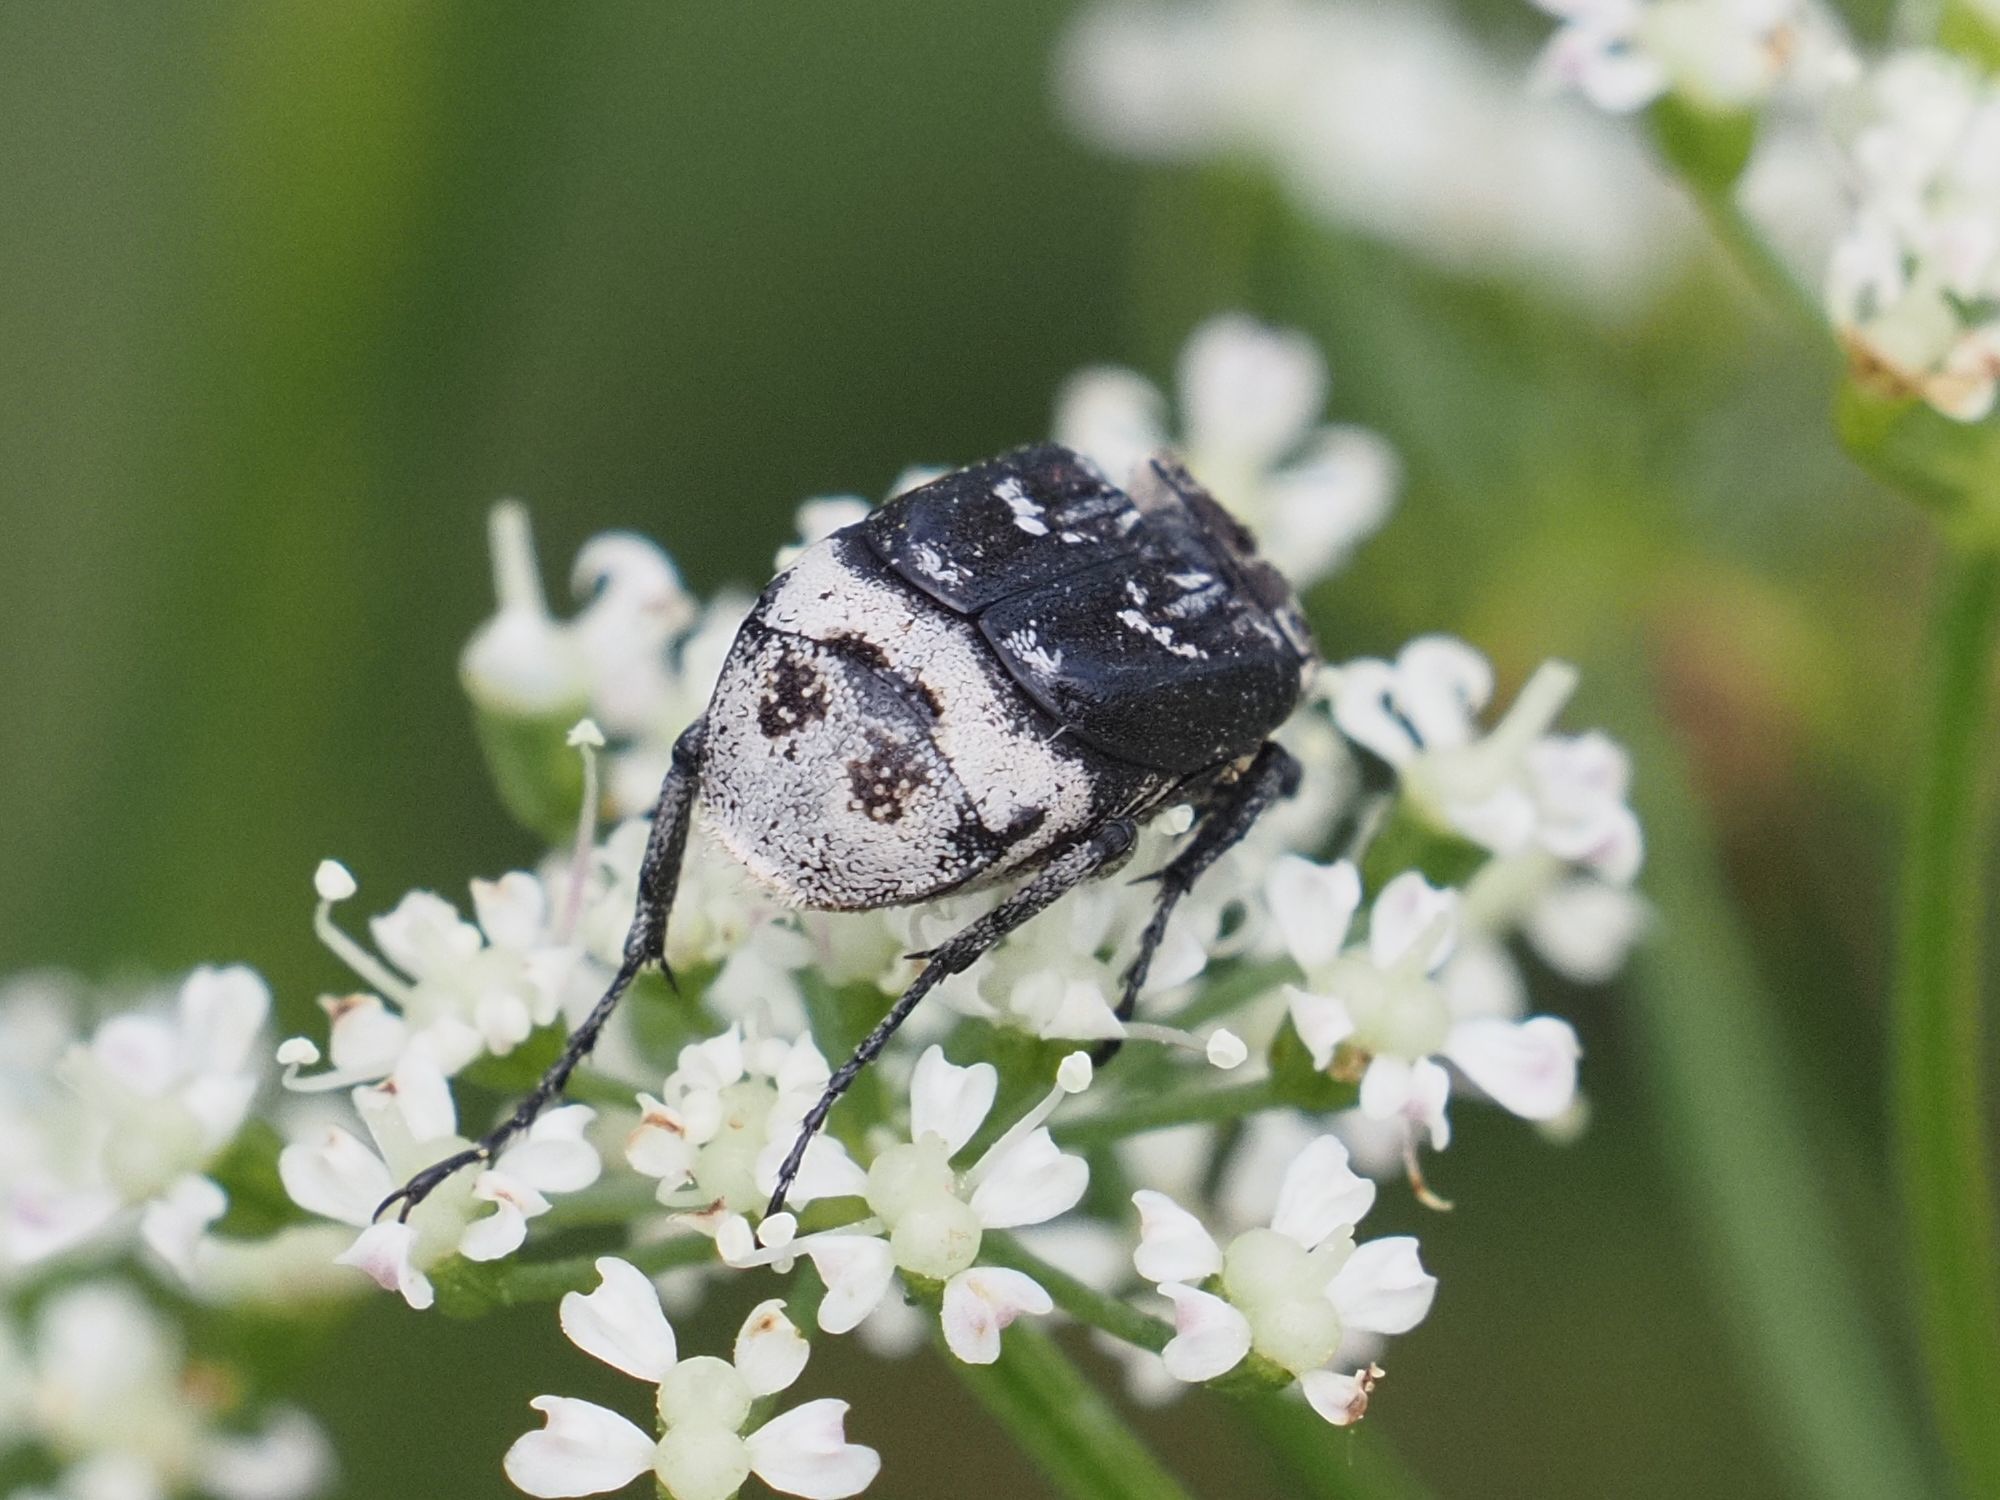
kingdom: Animalia
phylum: Arthropoda
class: Insecta
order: Coleoptera
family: Scarabaeidae
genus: Valgus
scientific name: Valgus hemipterus
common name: Bug flower chafer
